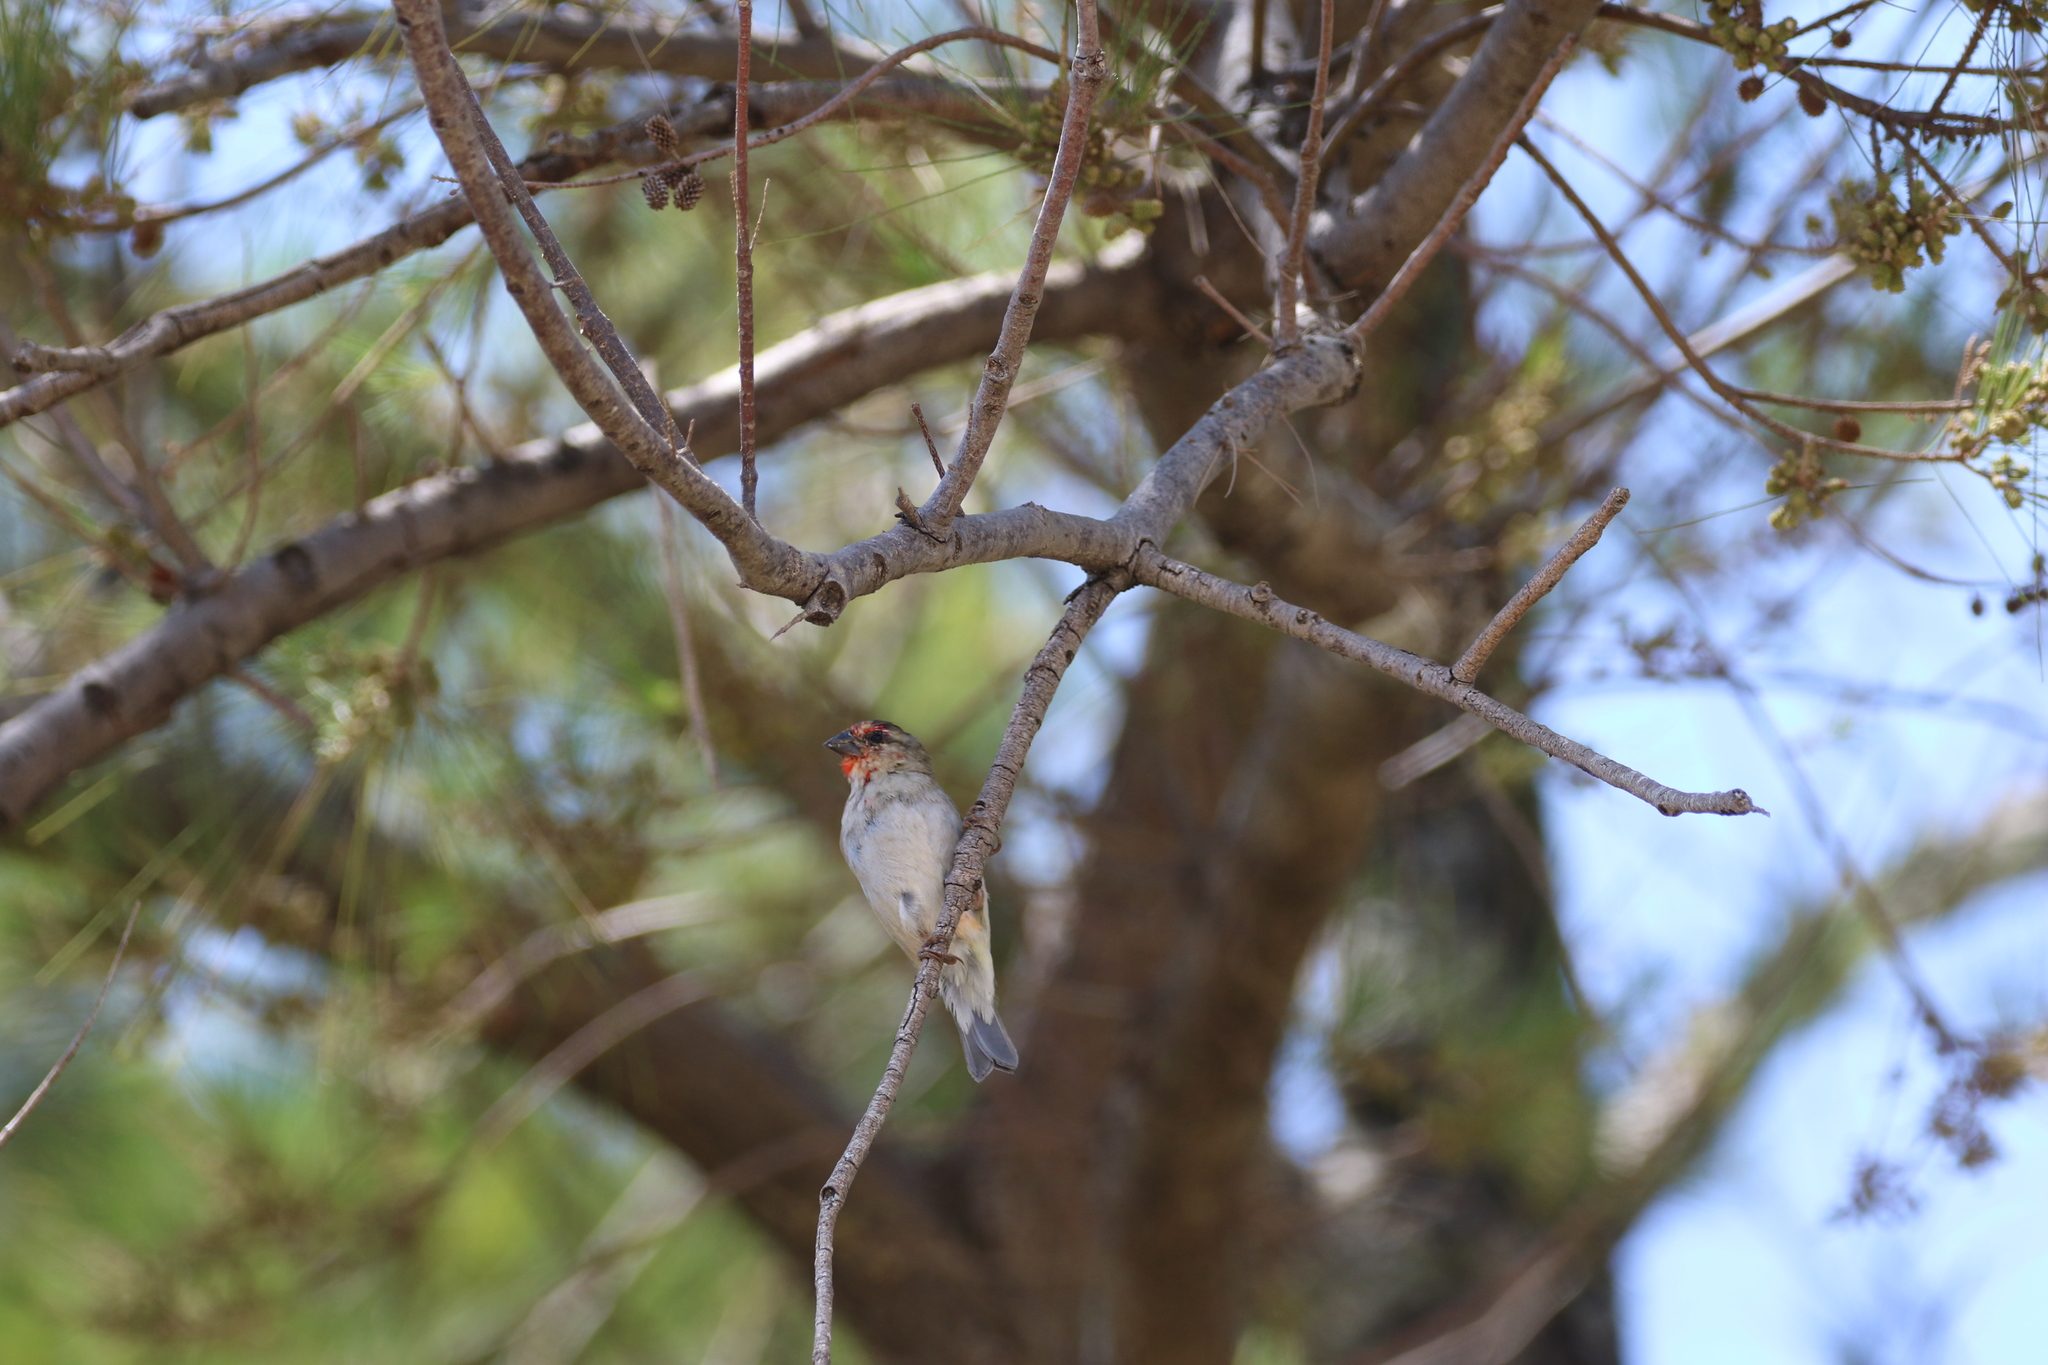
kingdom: Animalia
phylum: Chordata
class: Aves
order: Passeriformes
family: Ploceidae
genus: Foudia
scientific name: Foudia madagascariensis
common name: Red fody
